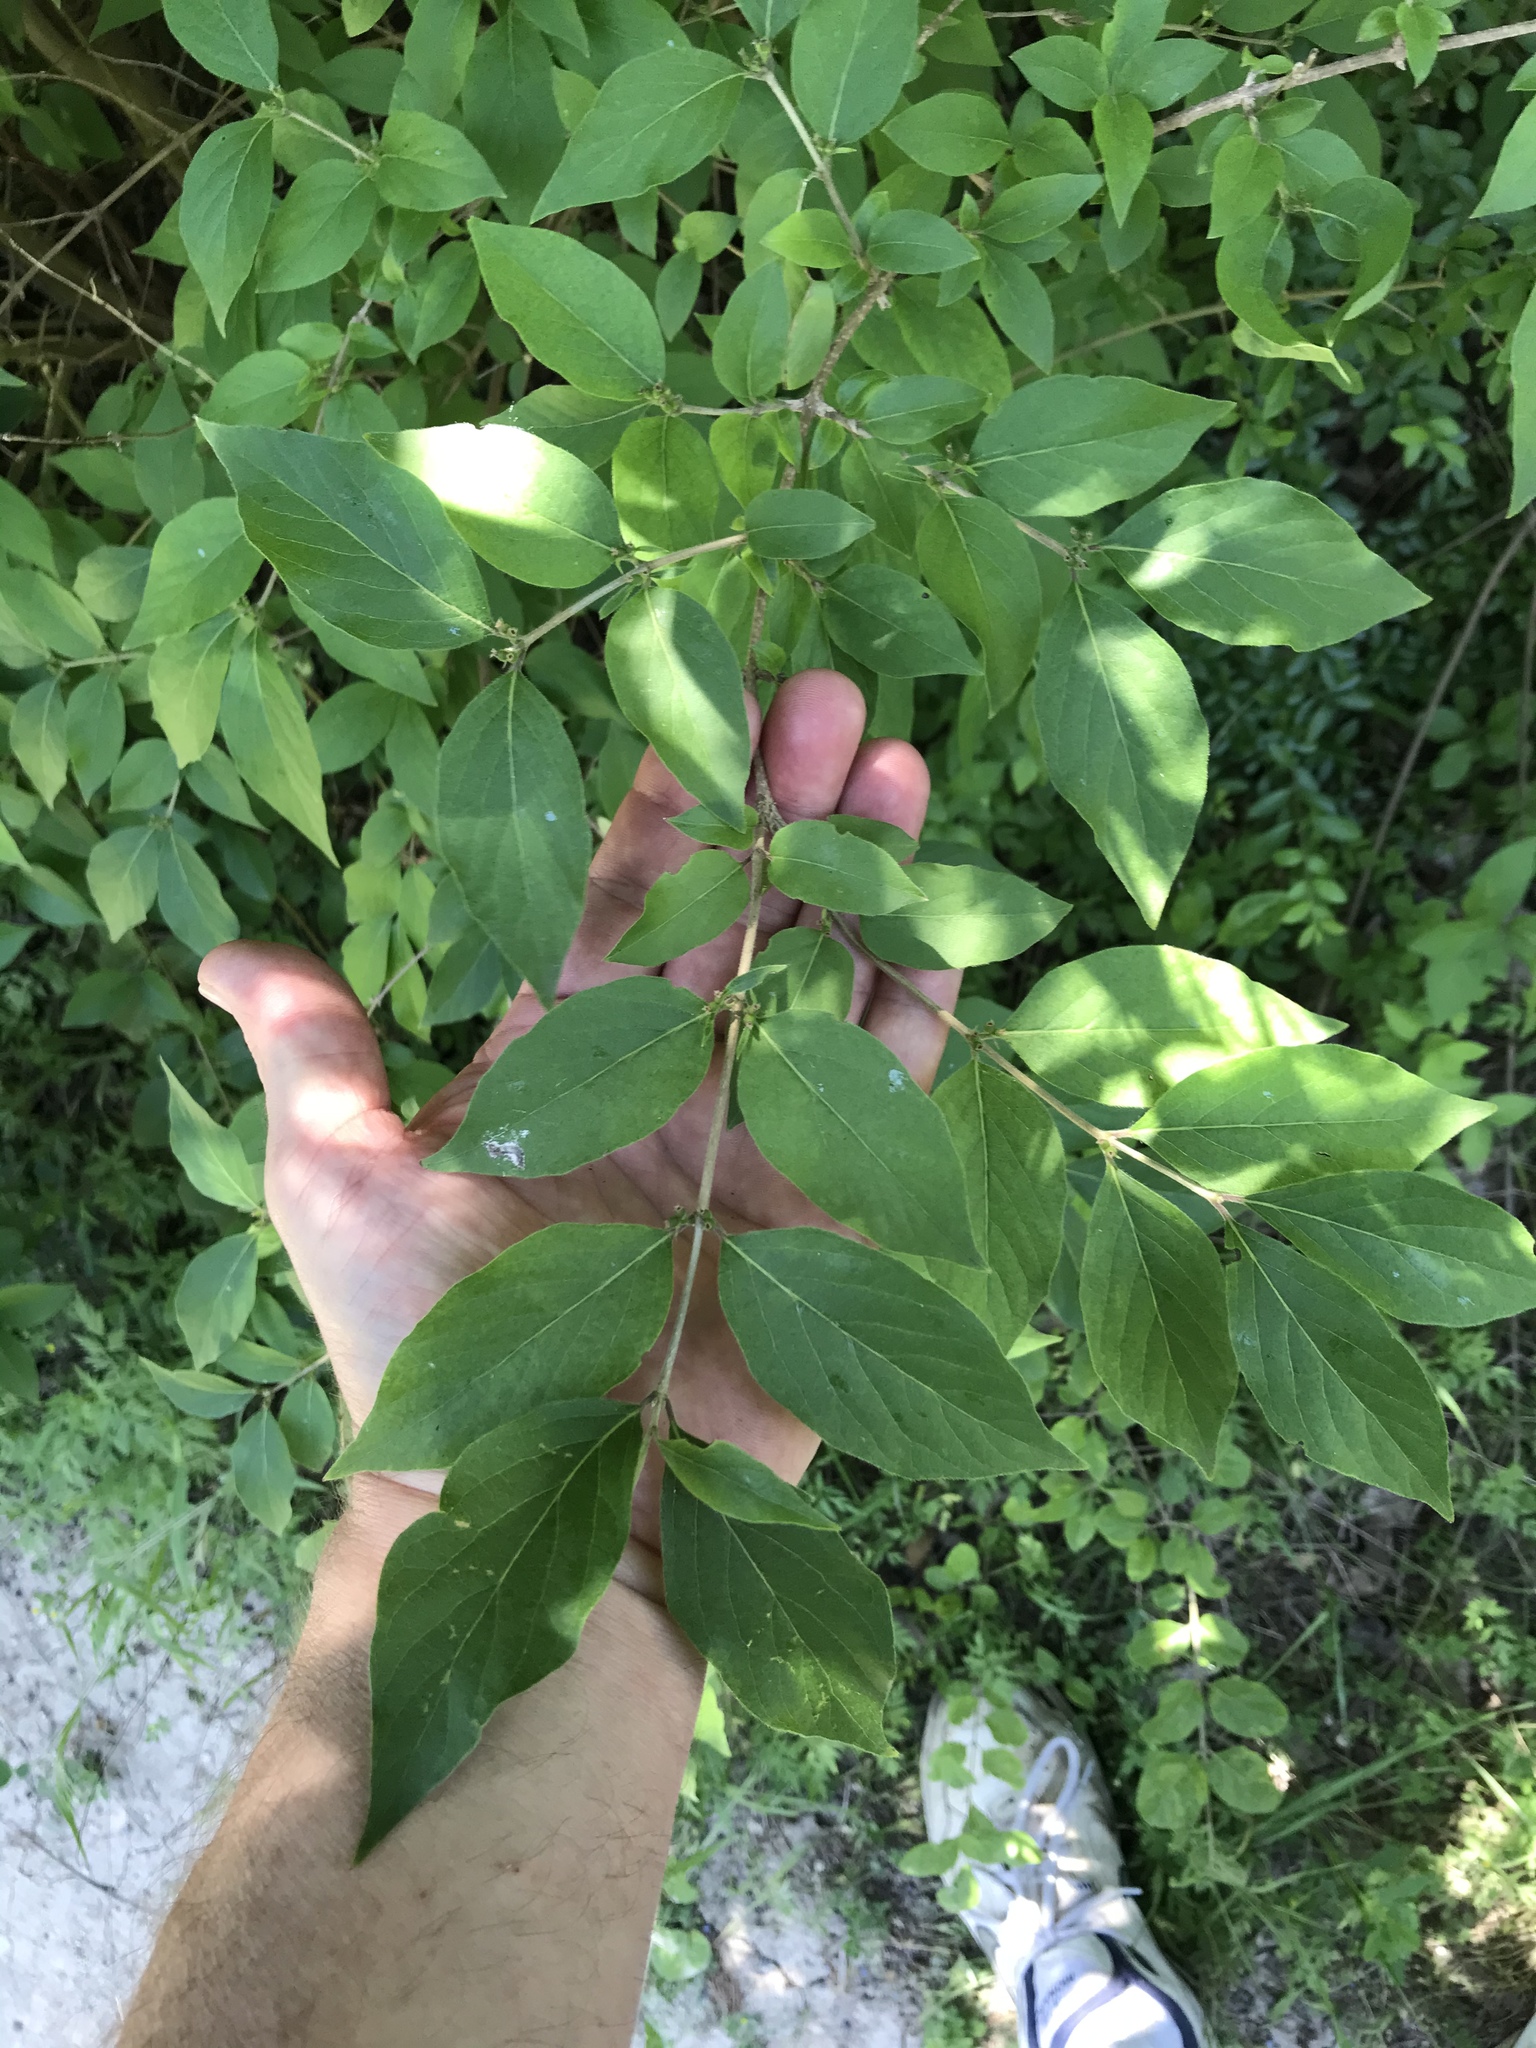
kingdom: Plantae
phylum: Tracheophyta
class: Magnoliopsida
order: Dipsacales
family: Caprifoliaceae
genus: Lonicera
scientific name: Lonicera maackii
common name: Amur honeysuckle
